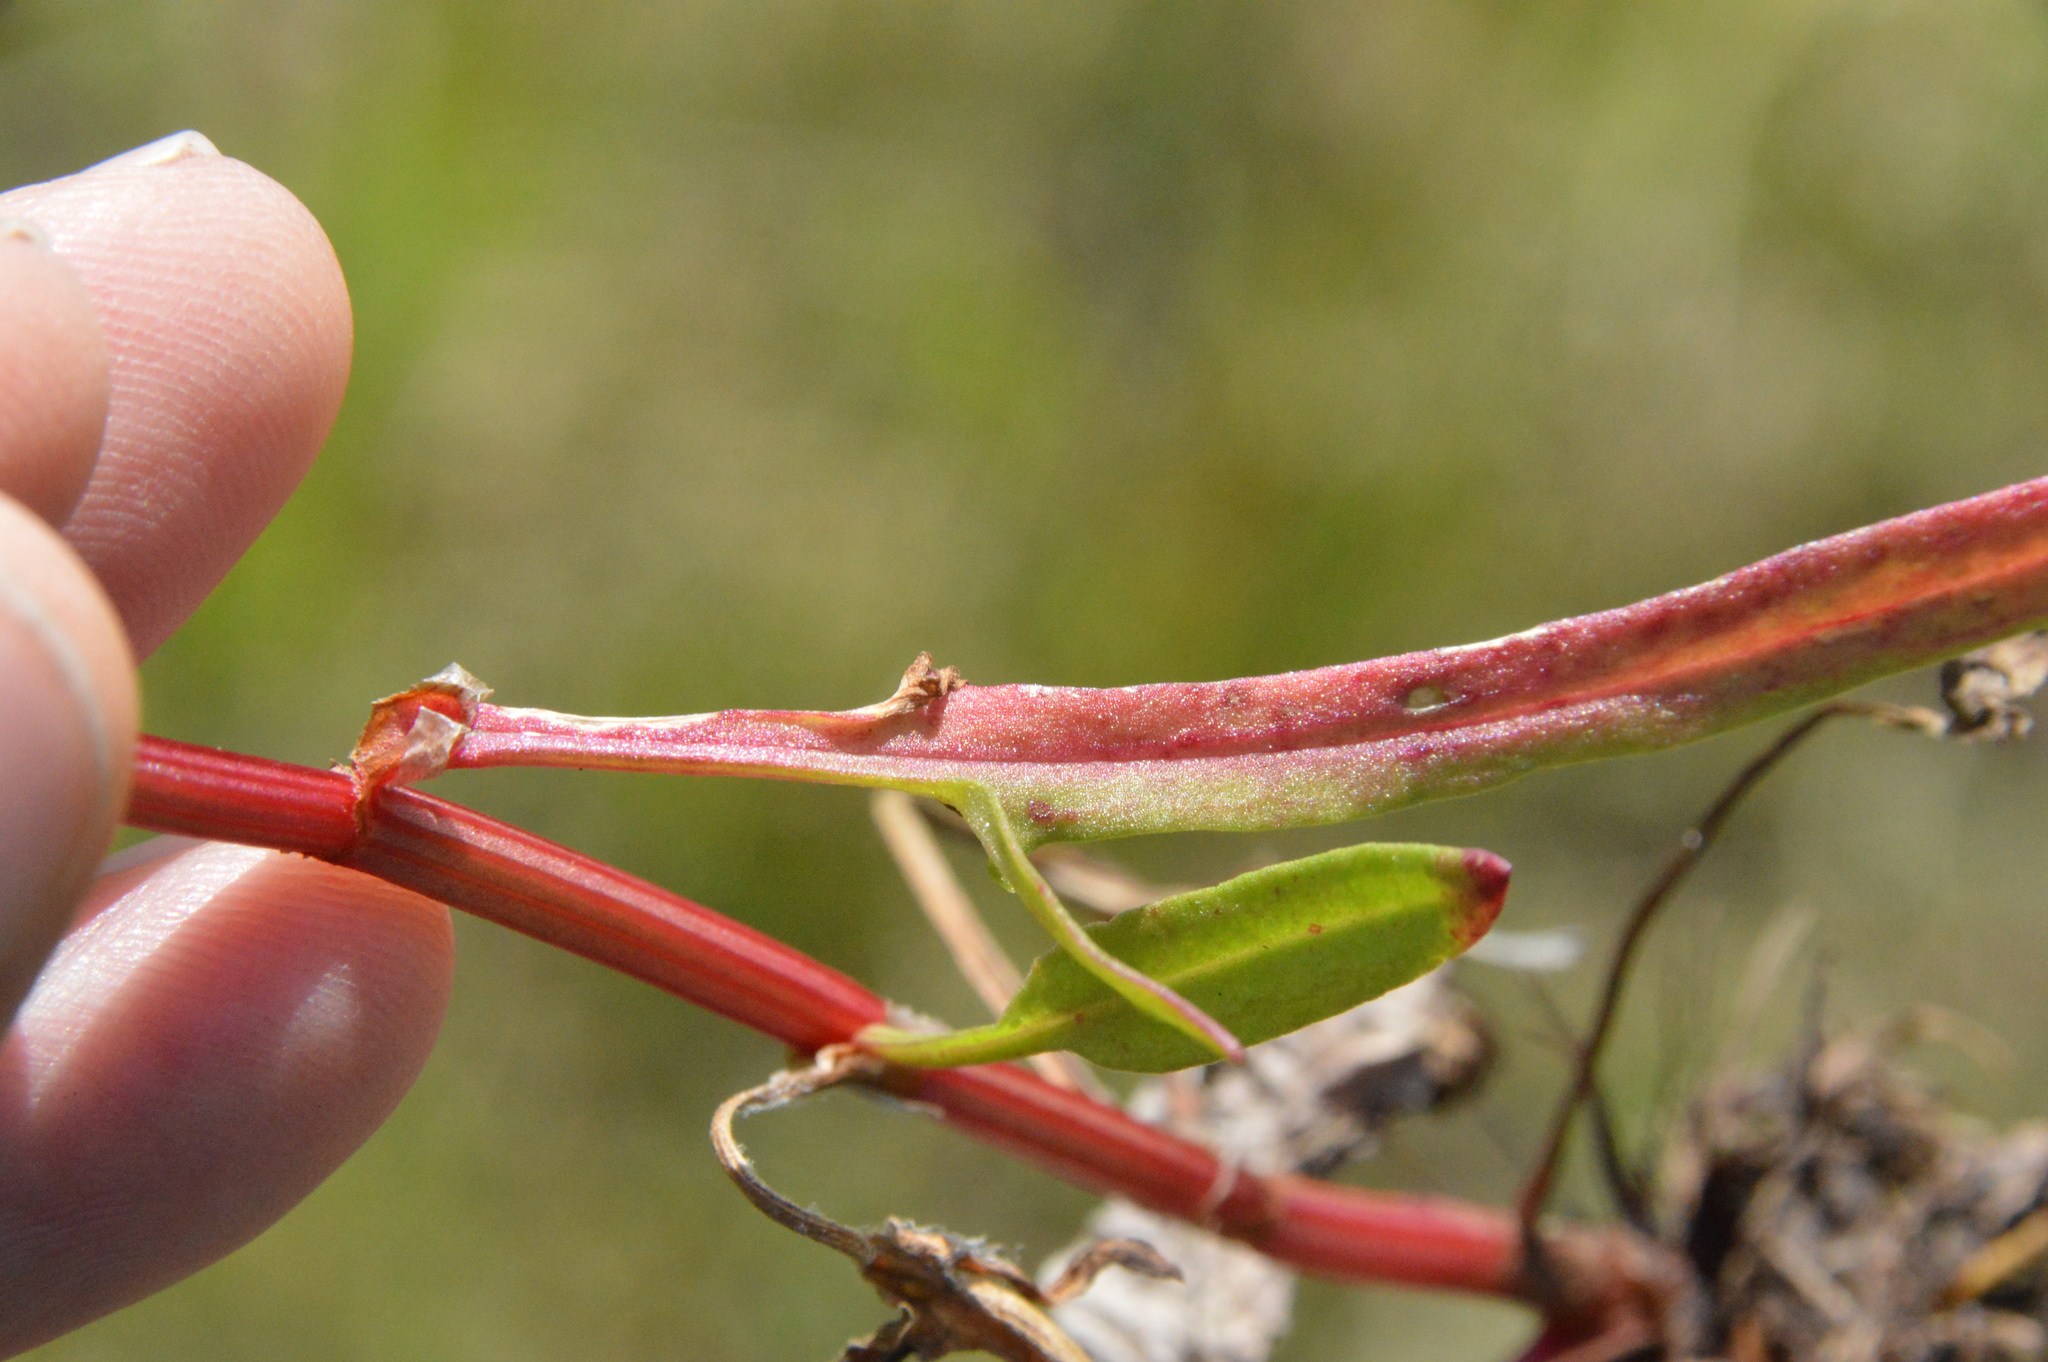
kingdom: Plantae
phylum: Tracheophyta
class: Magnoliopsida
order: Caryophyllales
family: Polygonaceae
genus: Rumex
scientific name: Rumex hastatulus
